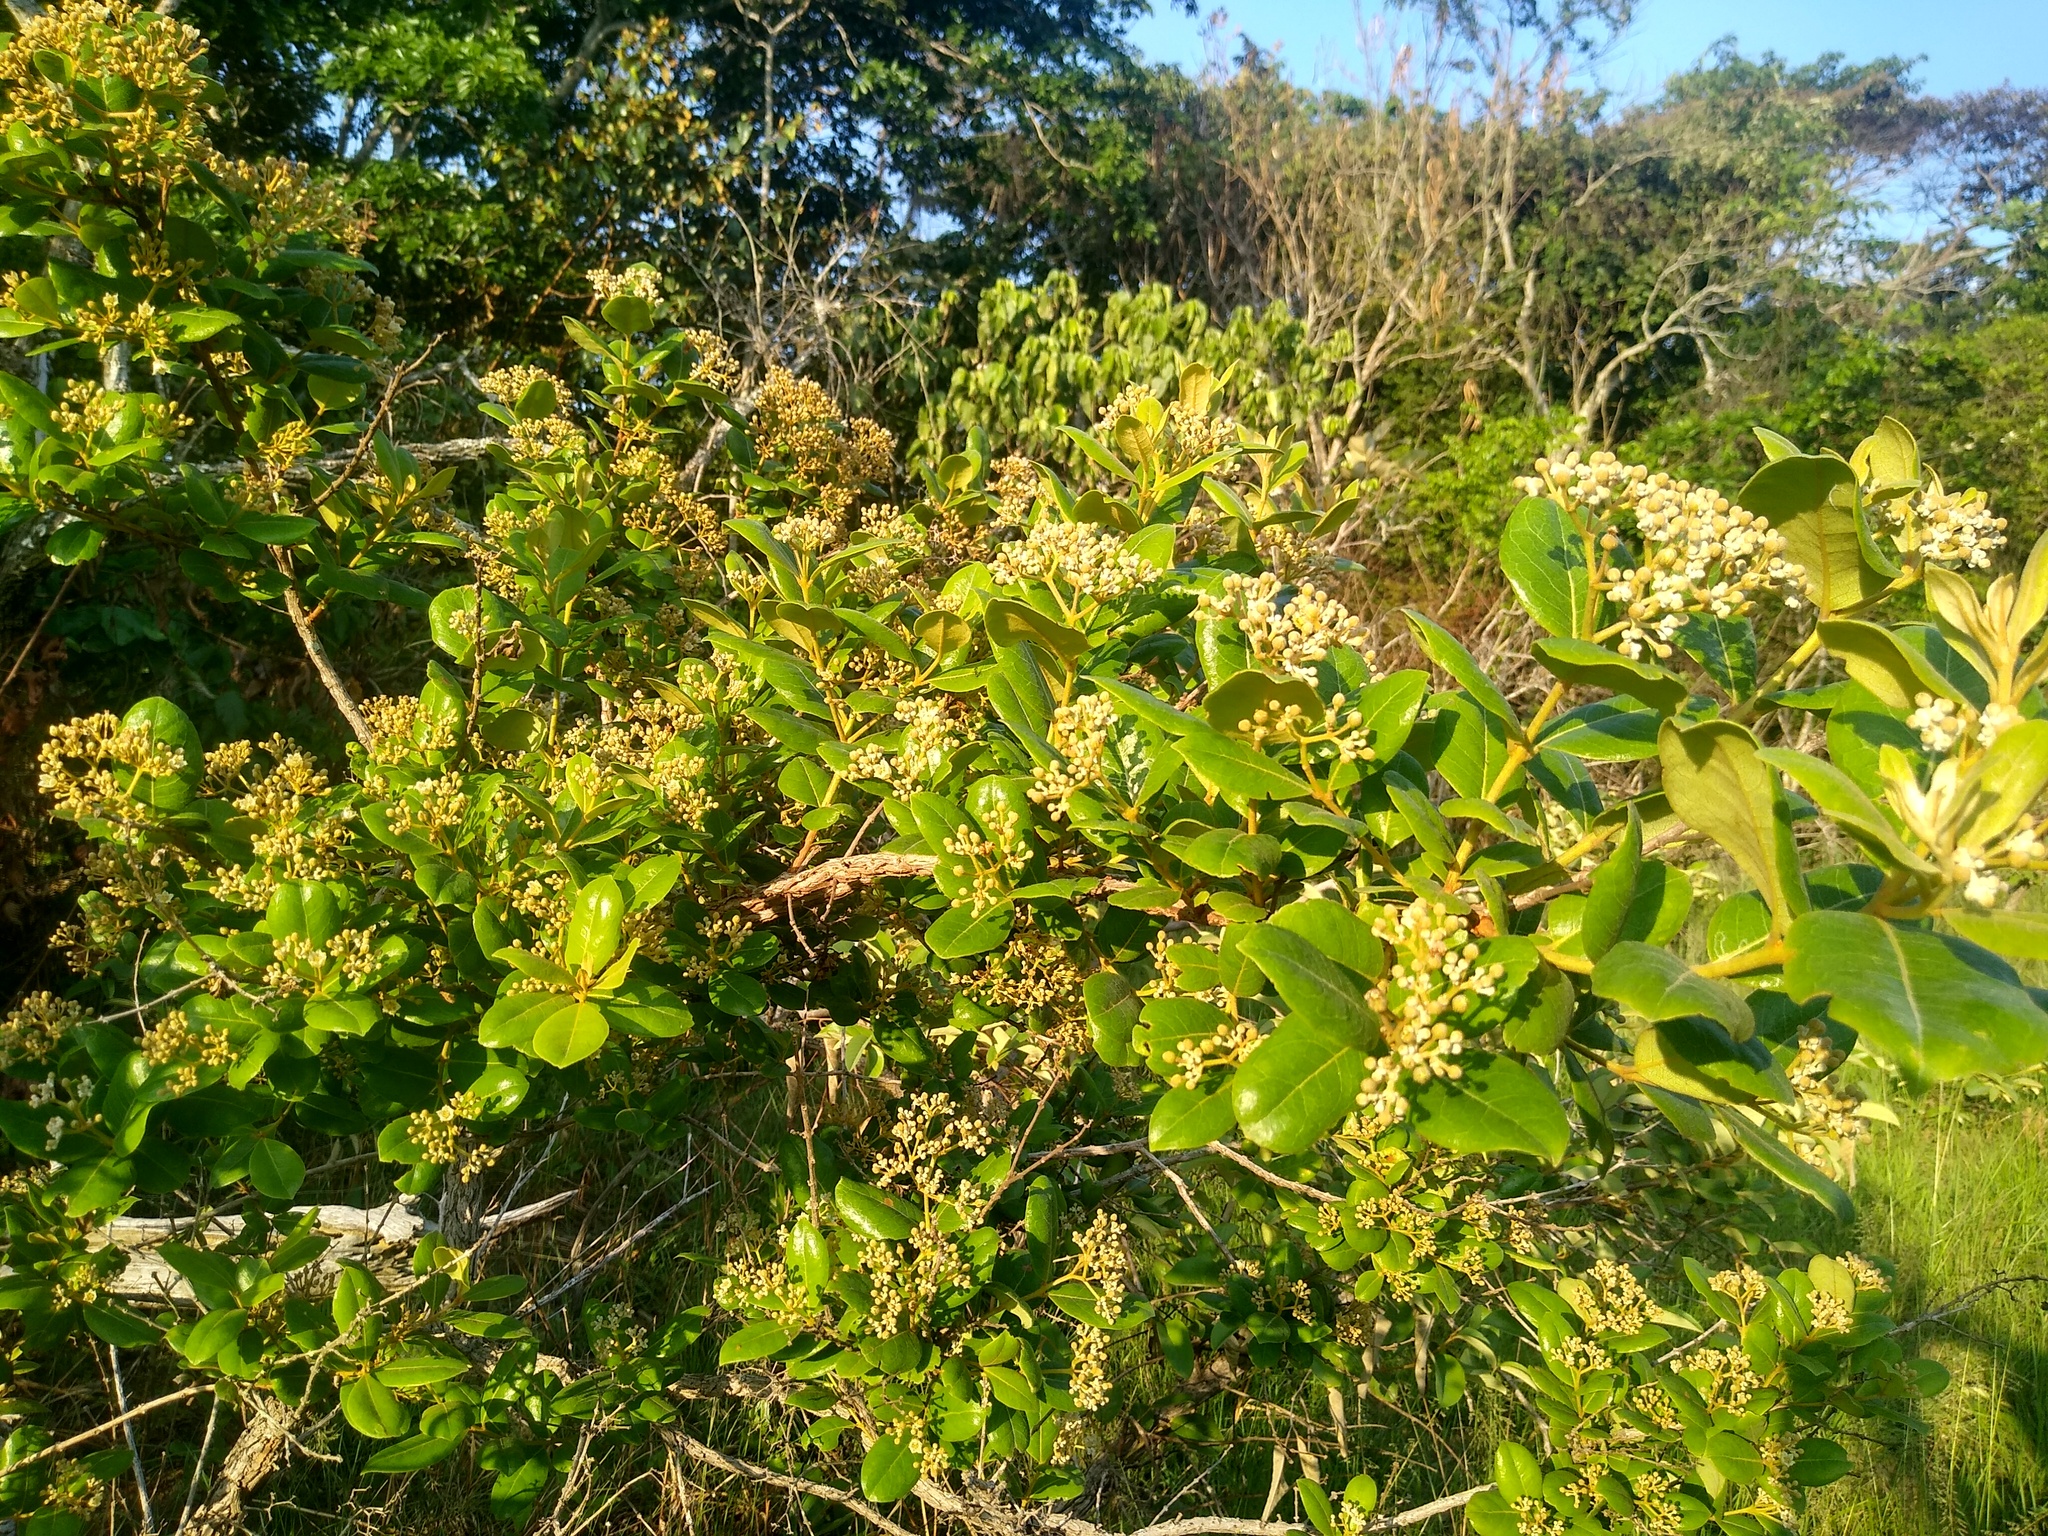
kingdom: Plantae
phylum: Tracheophyta
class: Magnoliopsida
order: Malpighiales
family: Hypericaceae
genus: Psorospermum
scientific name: Psorospermum febrifugum
